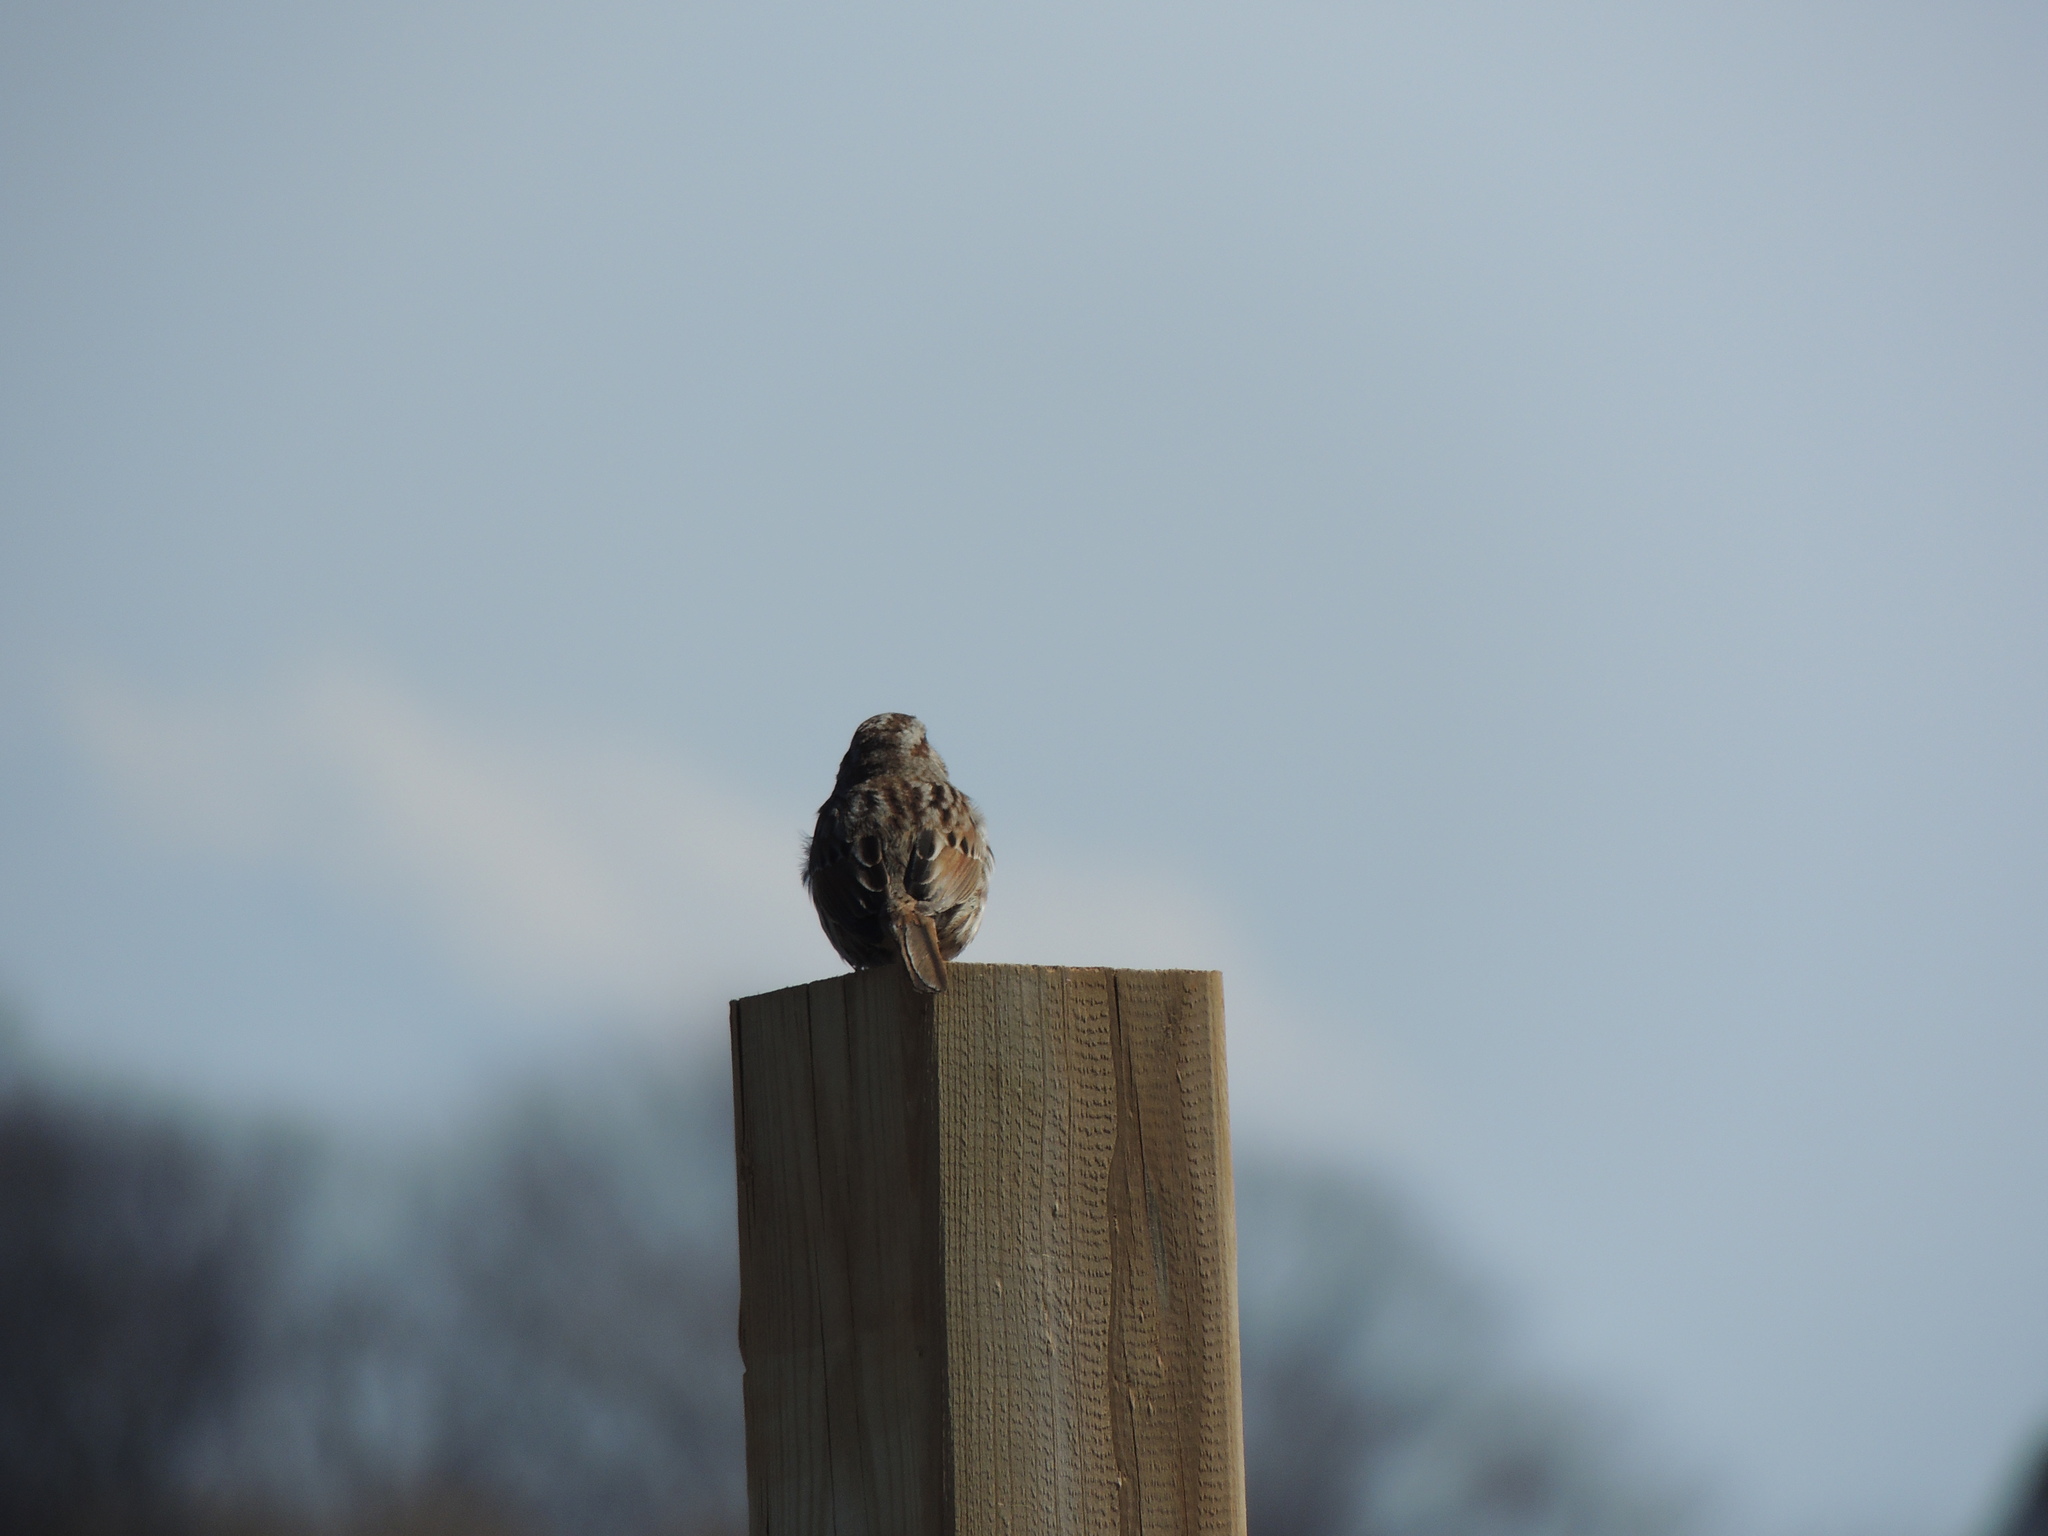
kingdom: Animalia
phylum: Chordata
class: Aves
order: Passeriformes
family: Passerellidae
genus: Melospiza
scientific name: Melospiza melodia
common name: Song sparrow
